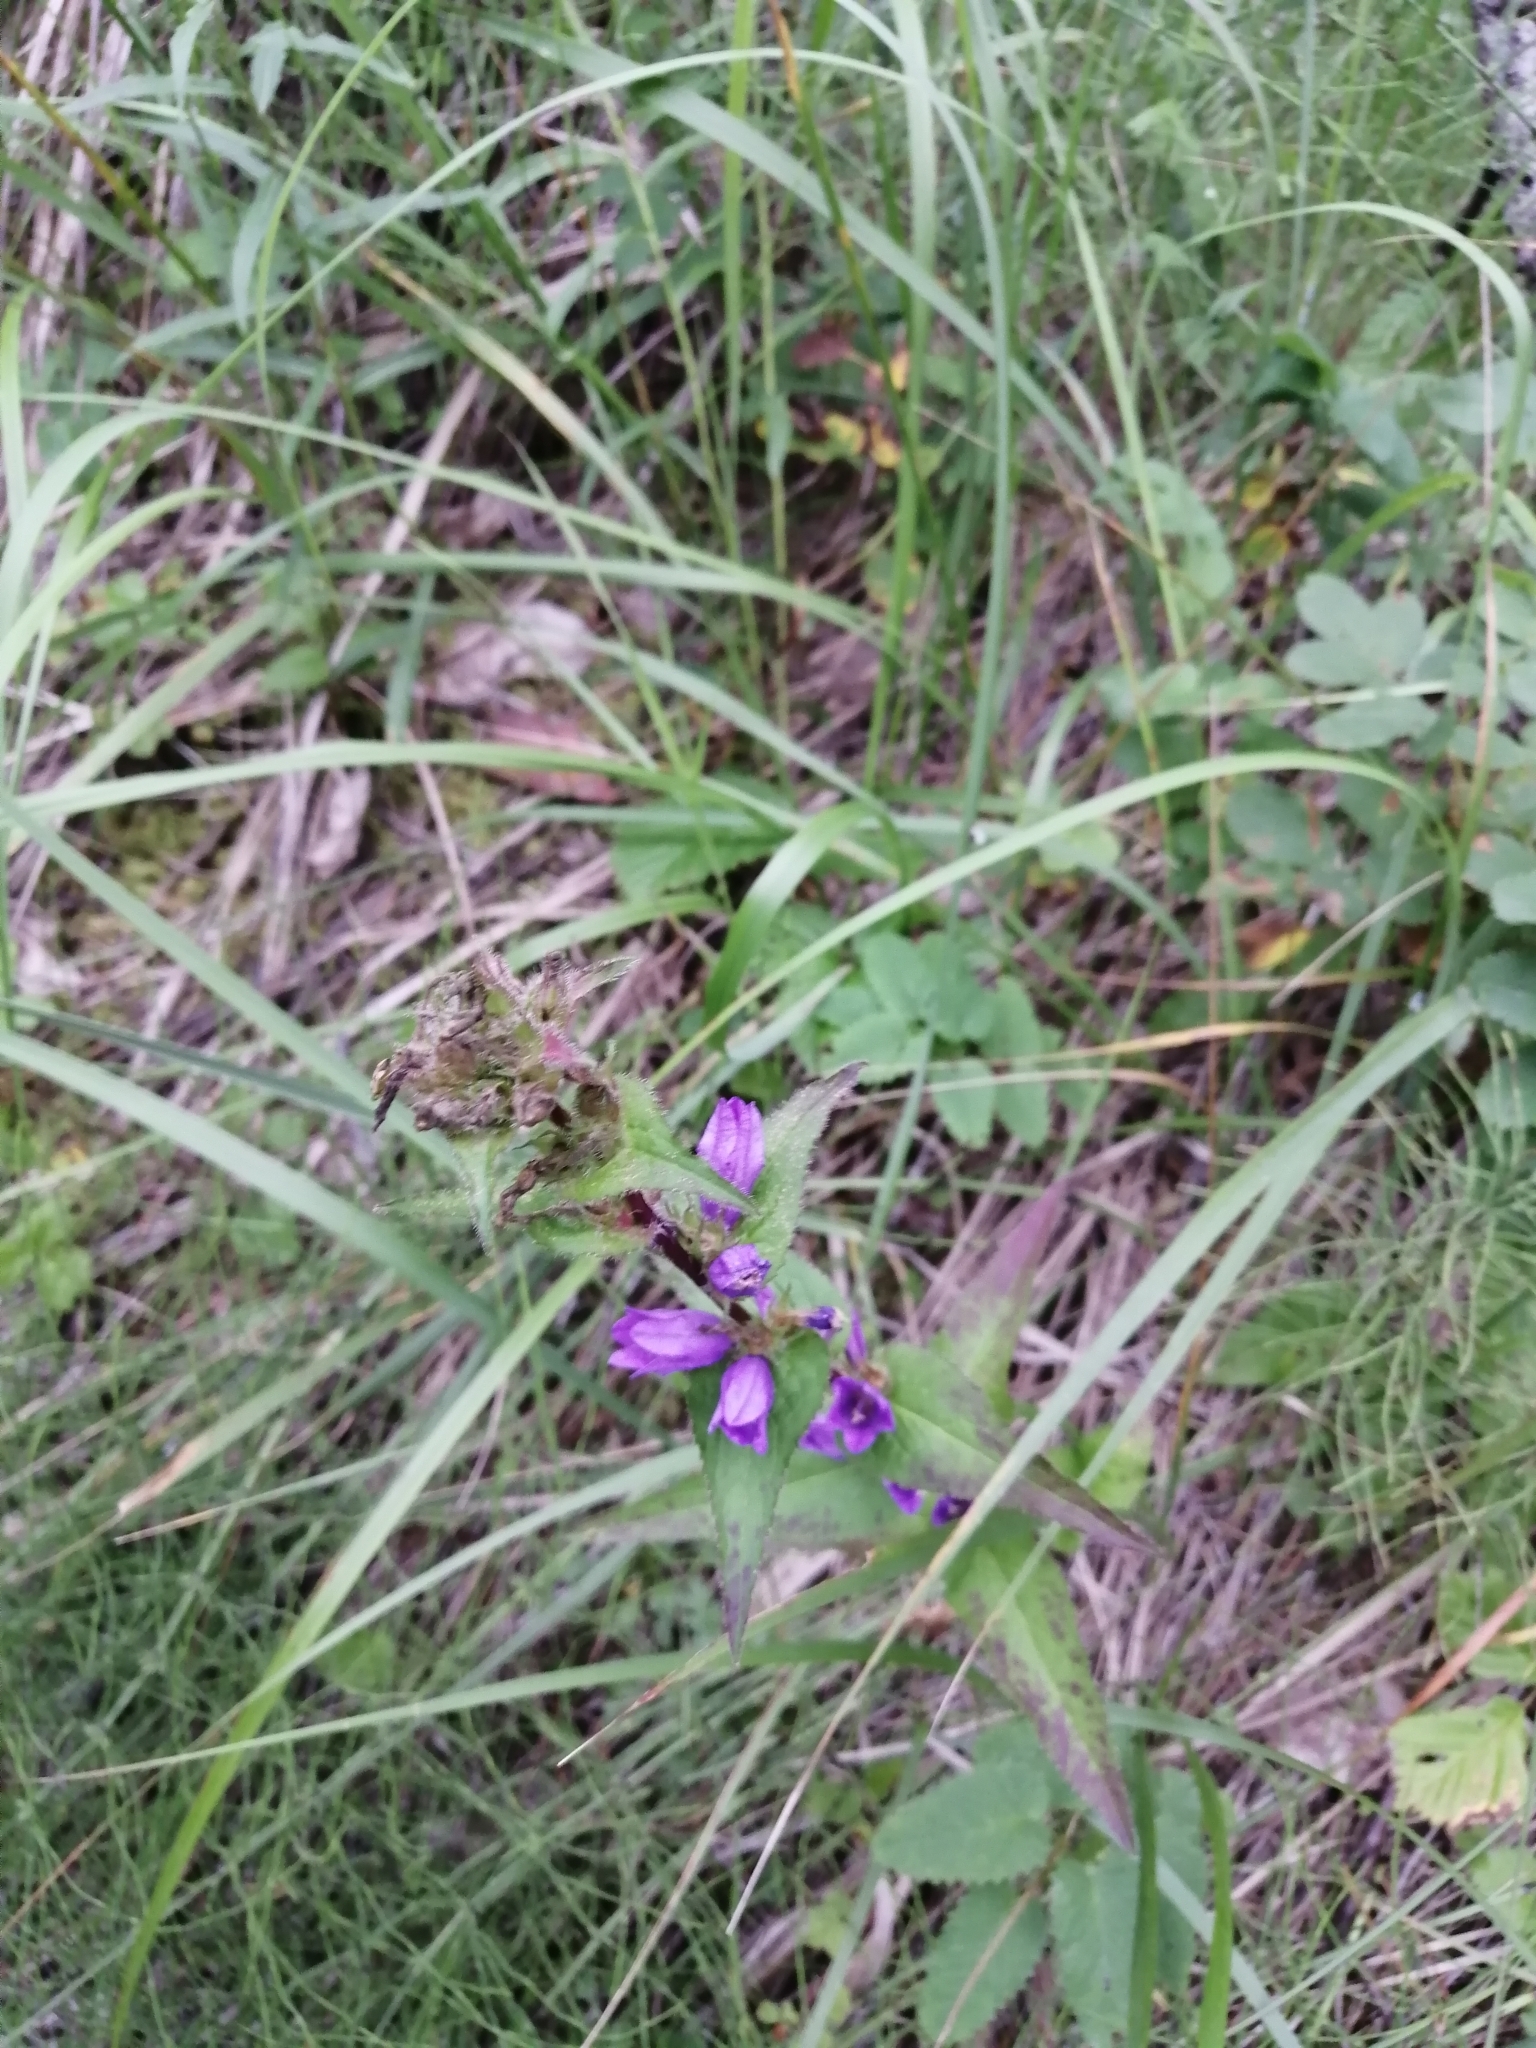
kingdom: Plantae
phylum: Tracheophyta
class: Magnoliopsida
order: Asterales
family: Campanulaceae
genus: Campanula
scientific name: Campanula glomerata
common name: Clustered bellflower
